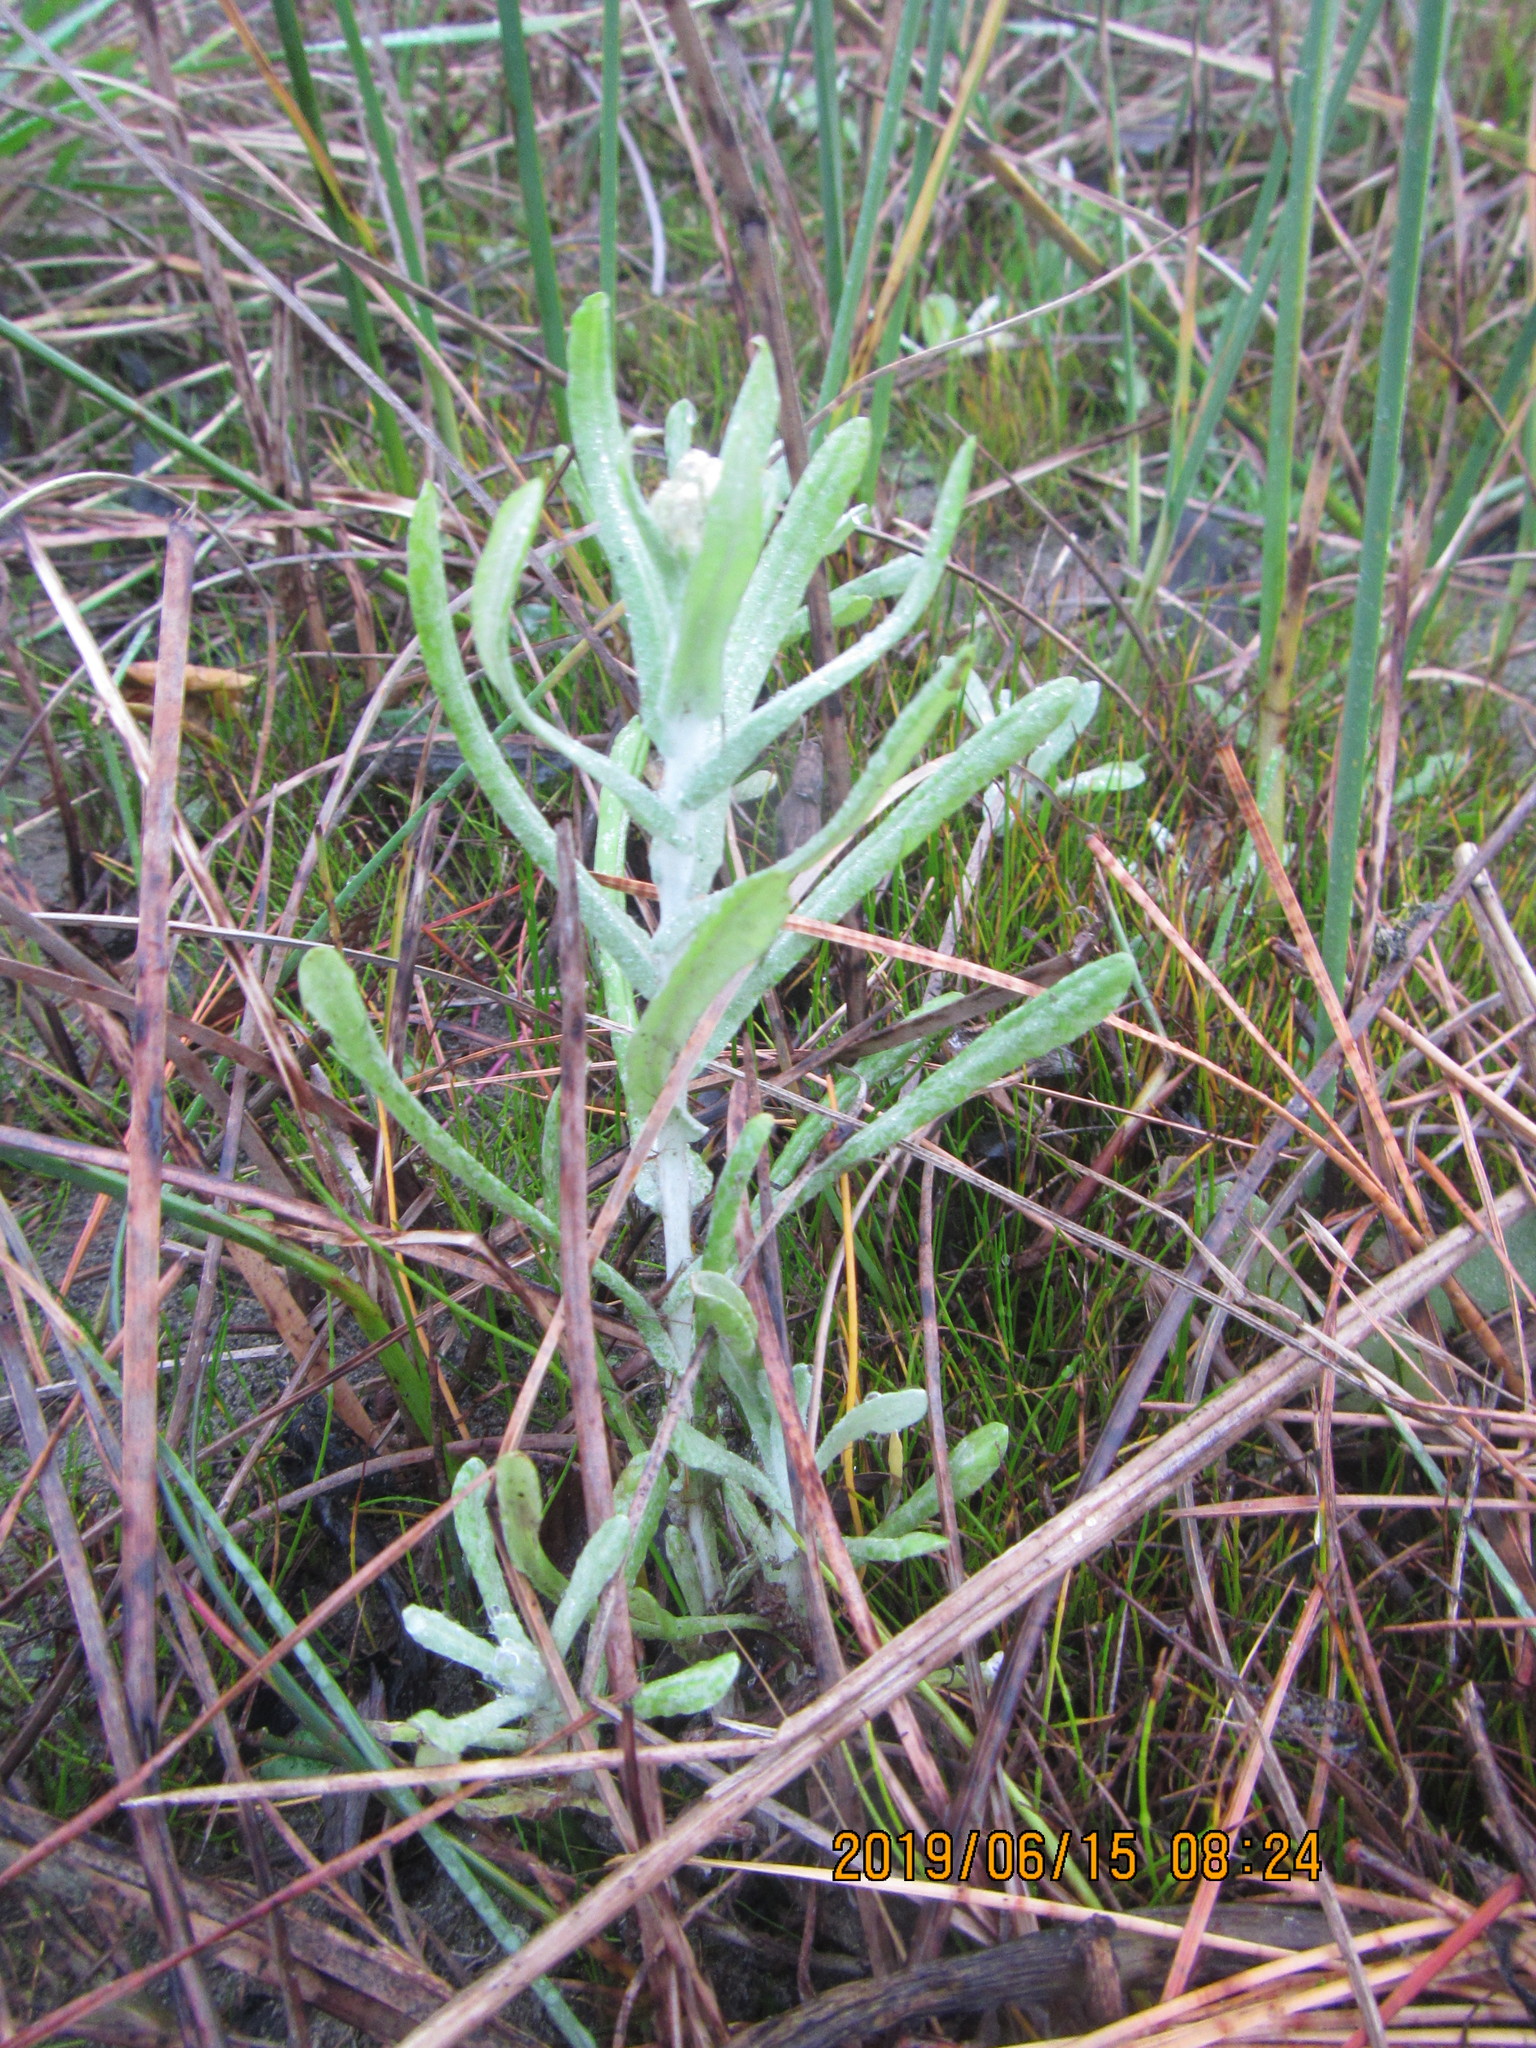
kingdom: Plantae
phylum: Tracheophyta
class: Magnoliopsida
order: Asterales
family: Asteraceae
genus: Helichrysum
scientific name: Helichrysum luteoalbum
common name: Daisy
